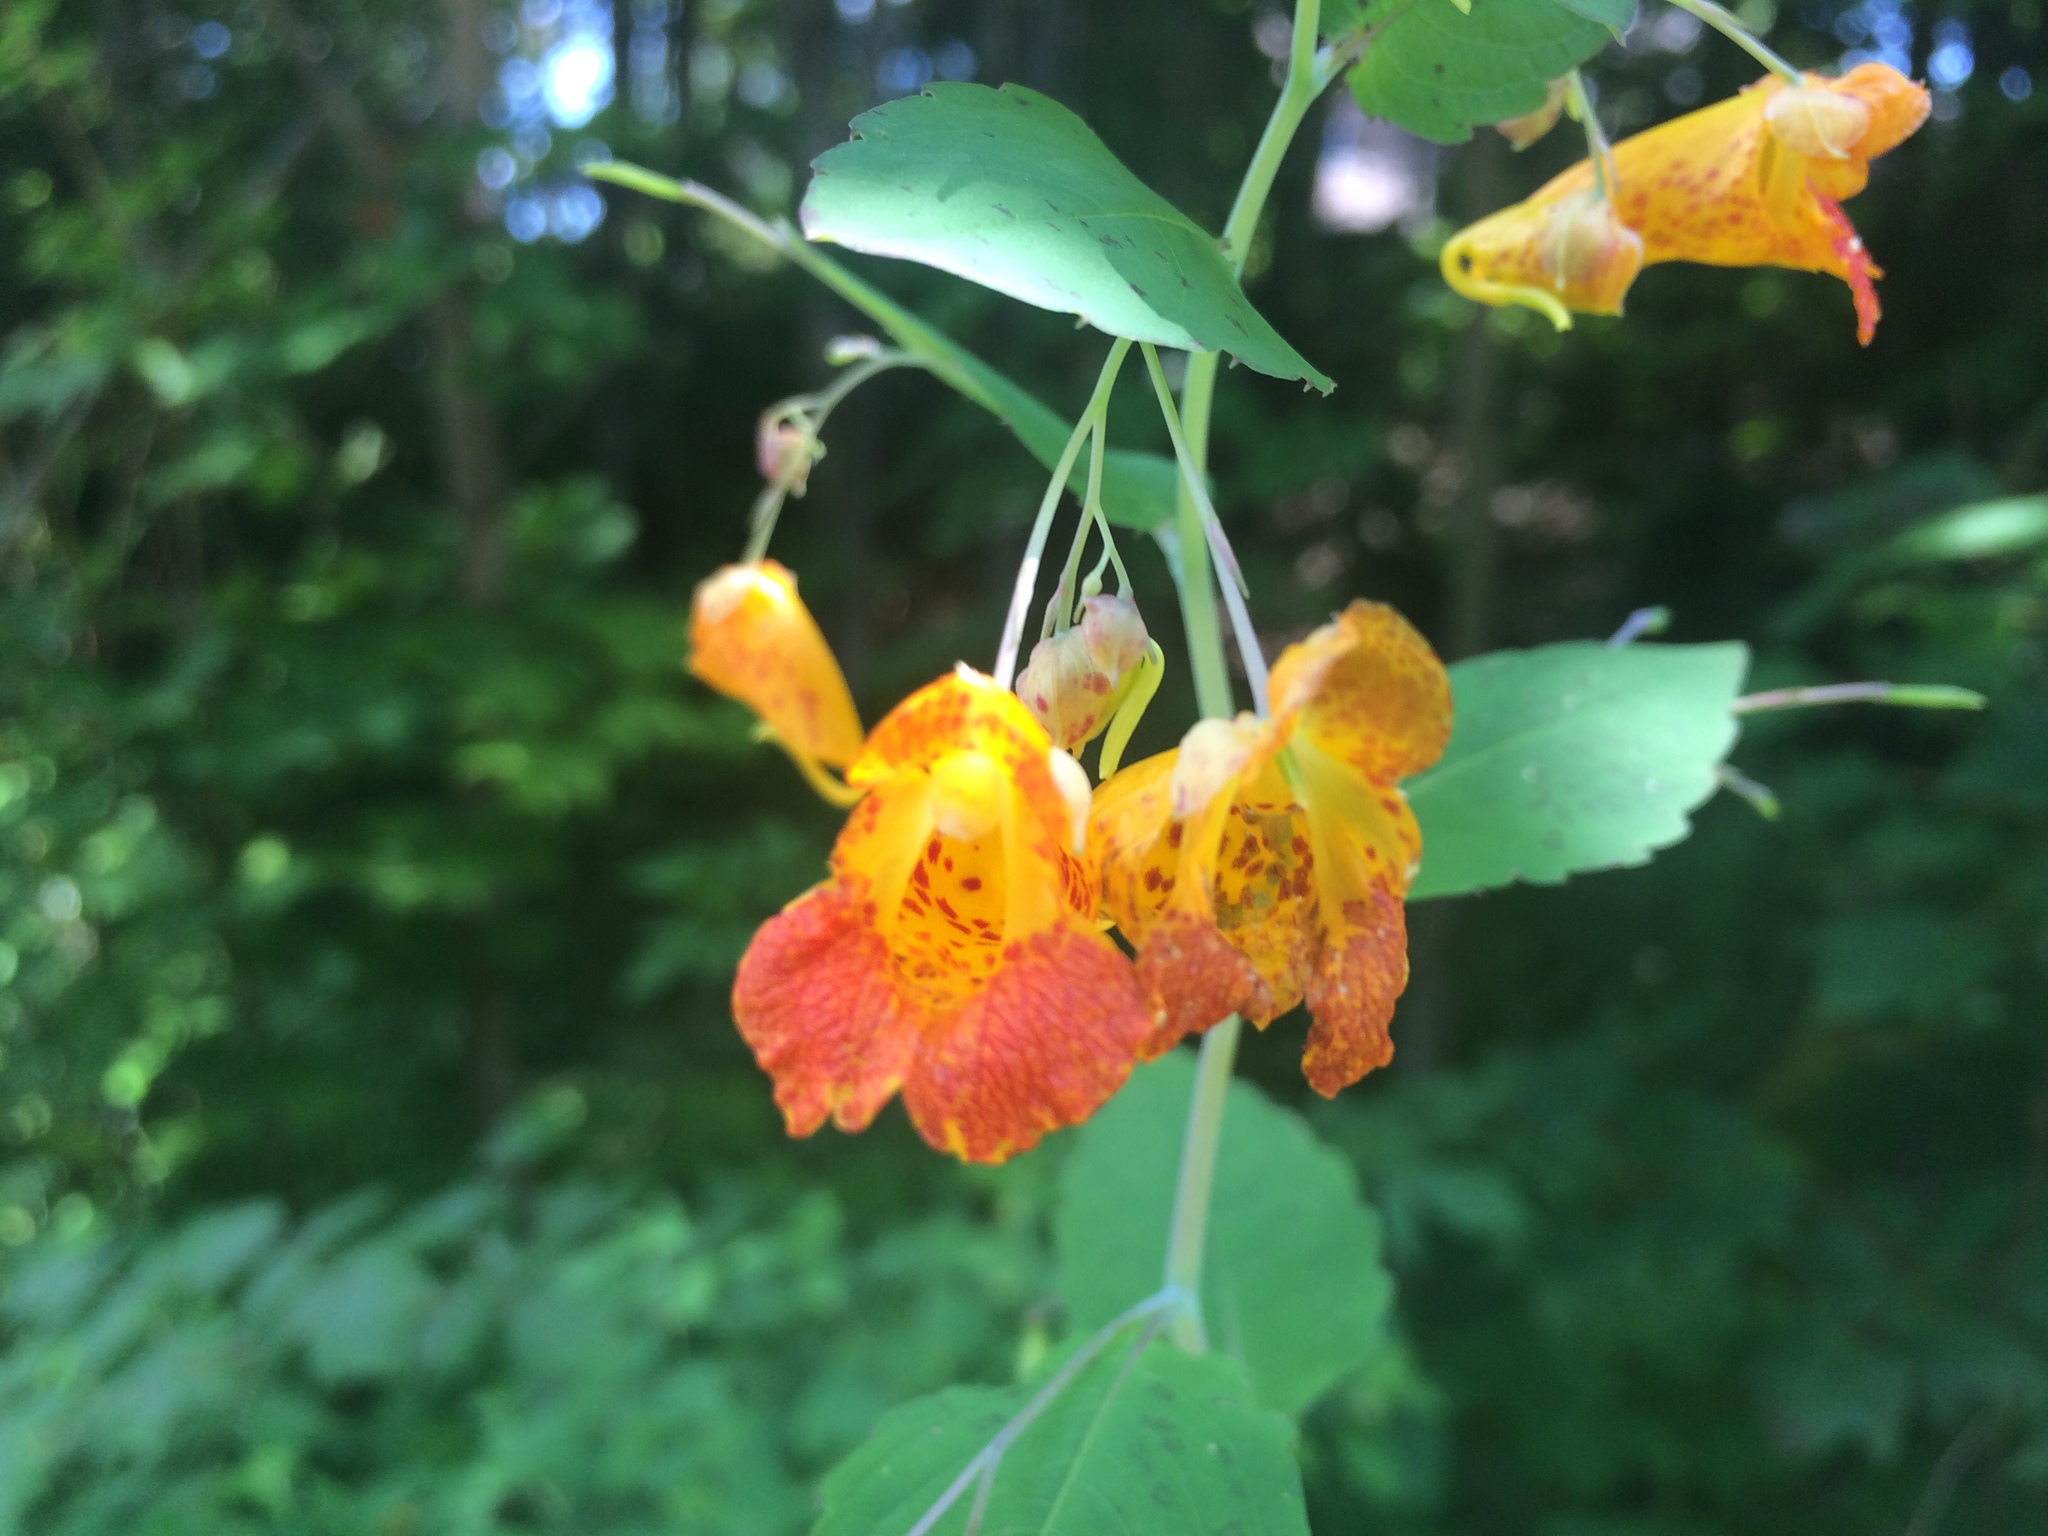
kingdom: Plantae
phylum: Tracheophyta
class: Magnoliopsida
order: Ericales
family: Balsaminaceae
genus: Impatiens
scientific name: Impatiens capensis
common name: Orange balsam
